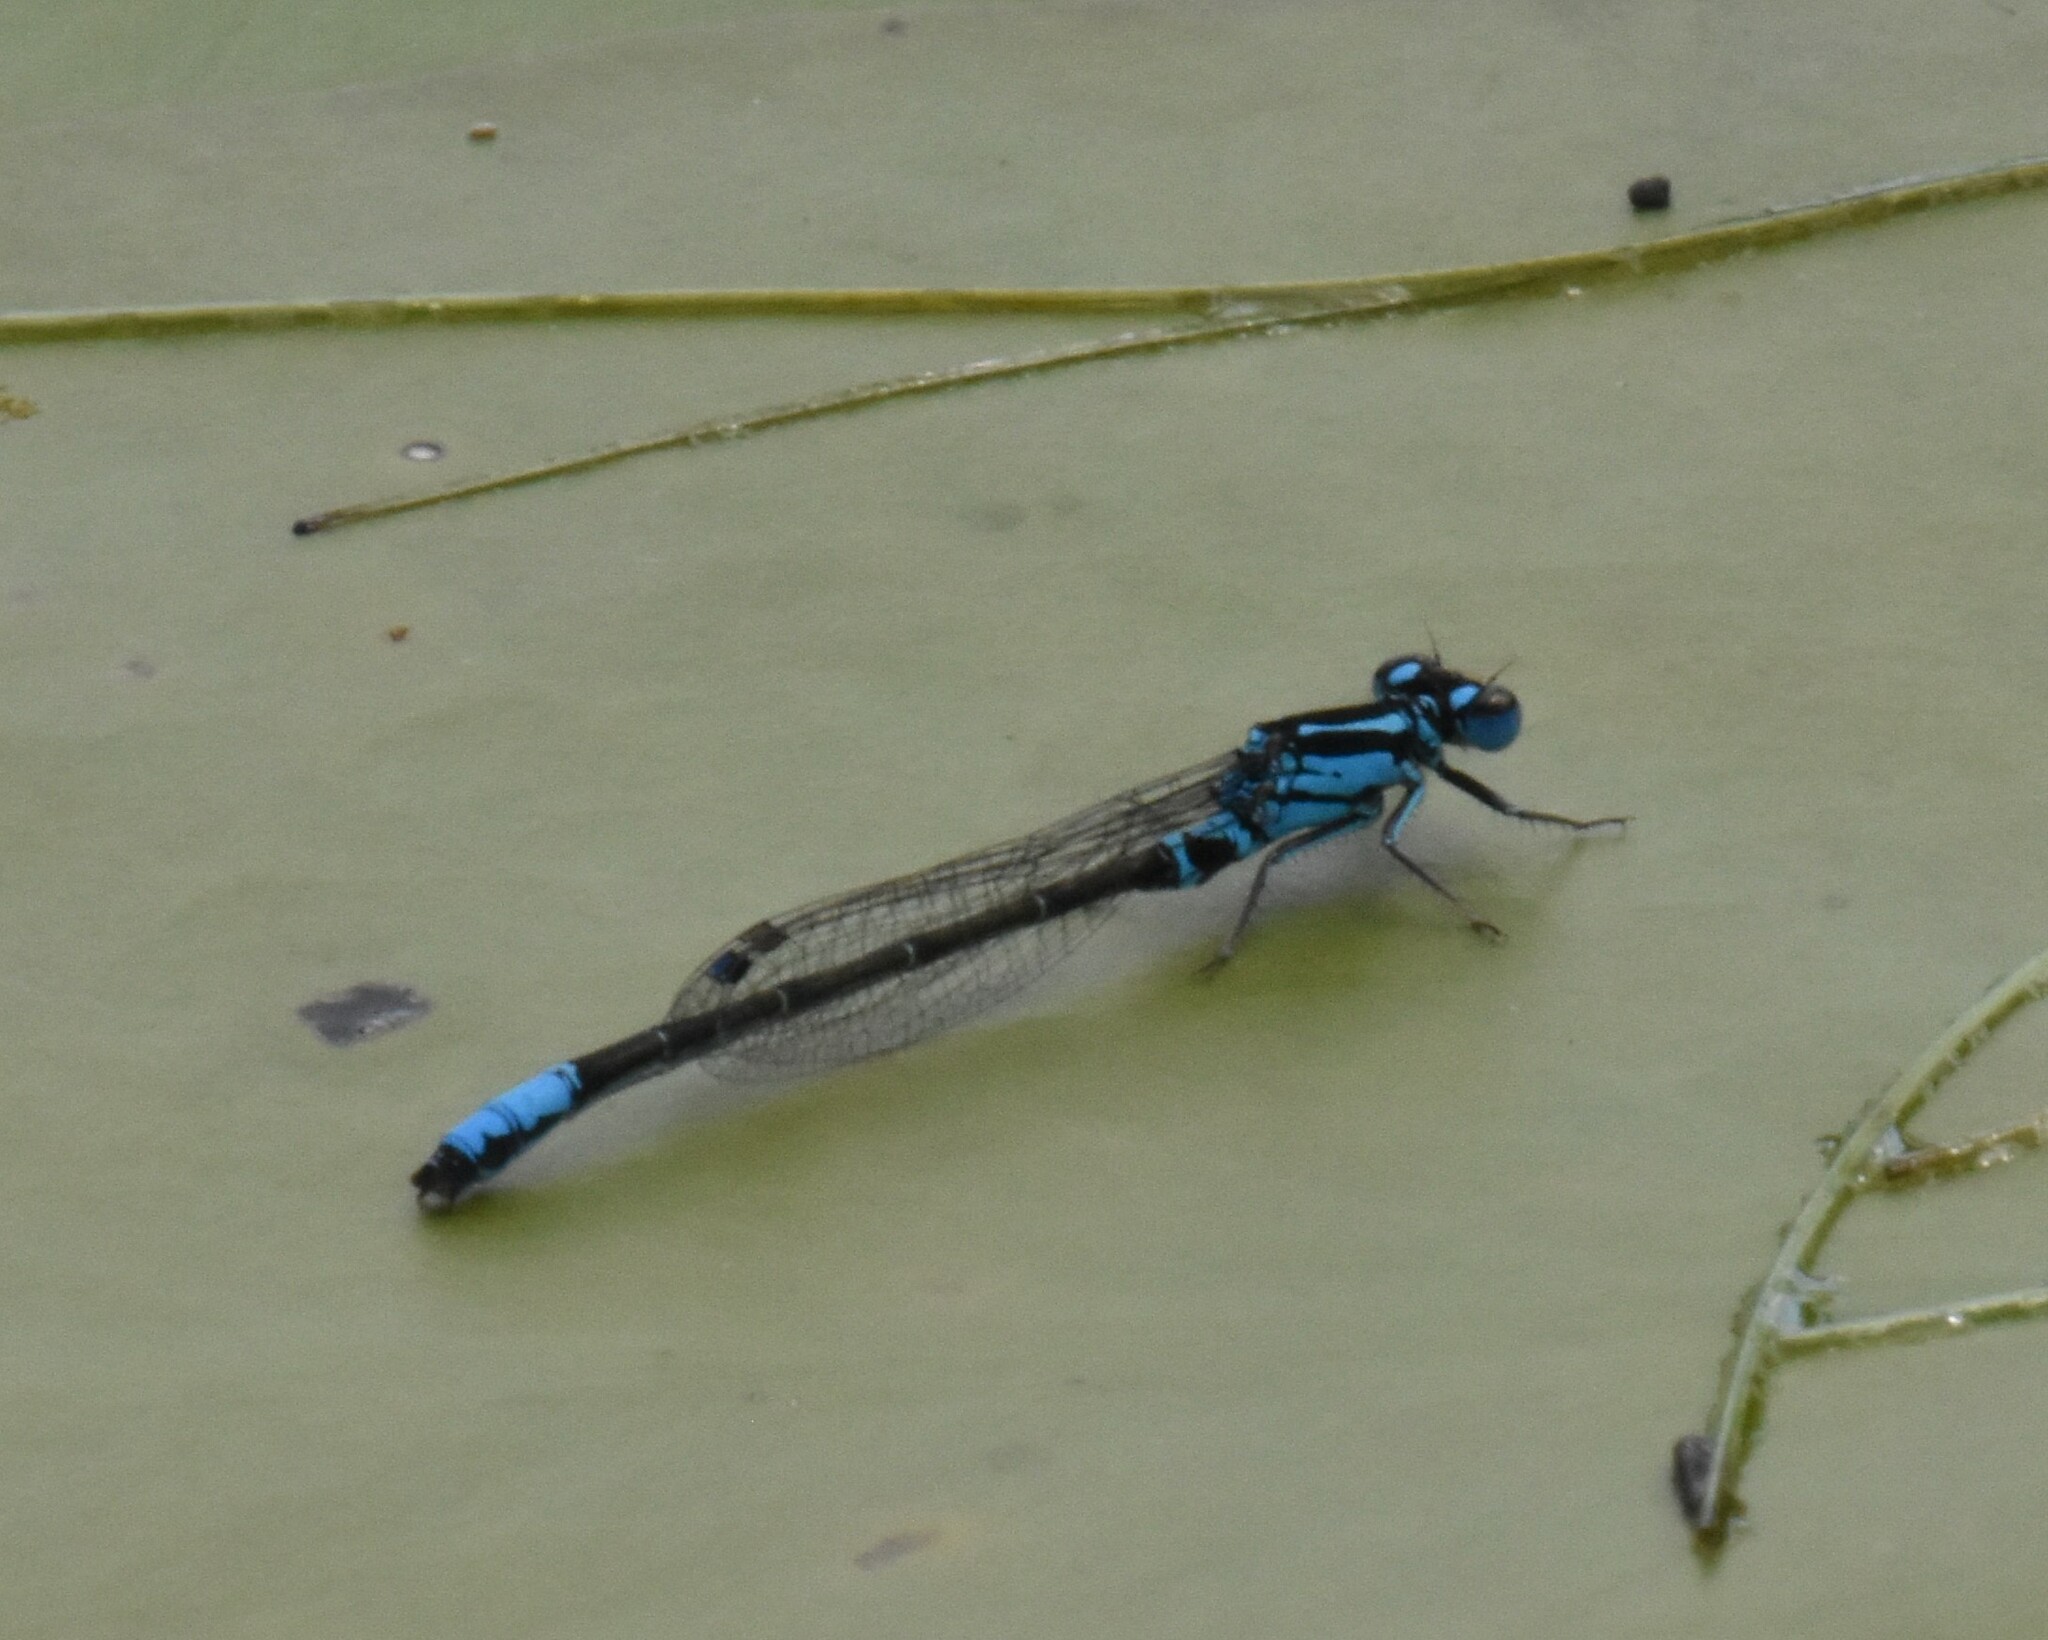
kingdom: Animalia
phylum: Arthropoda
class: Insecta
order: Odonata
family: Coenagrionidae
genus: Ischnura
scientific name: Ischnura kellicotti
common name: Lilypad forktail
